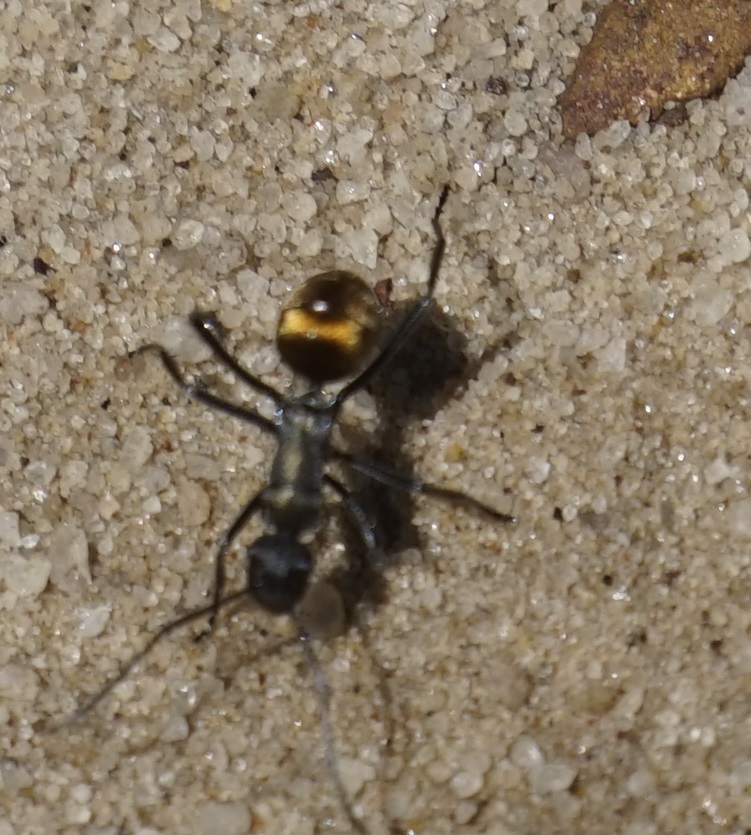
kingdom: Animalia
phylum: Arthropoda
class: Insecta
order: Hymenoptera
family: Formicidae
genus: Polyrhachis
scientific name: Polyrhachis ammon
